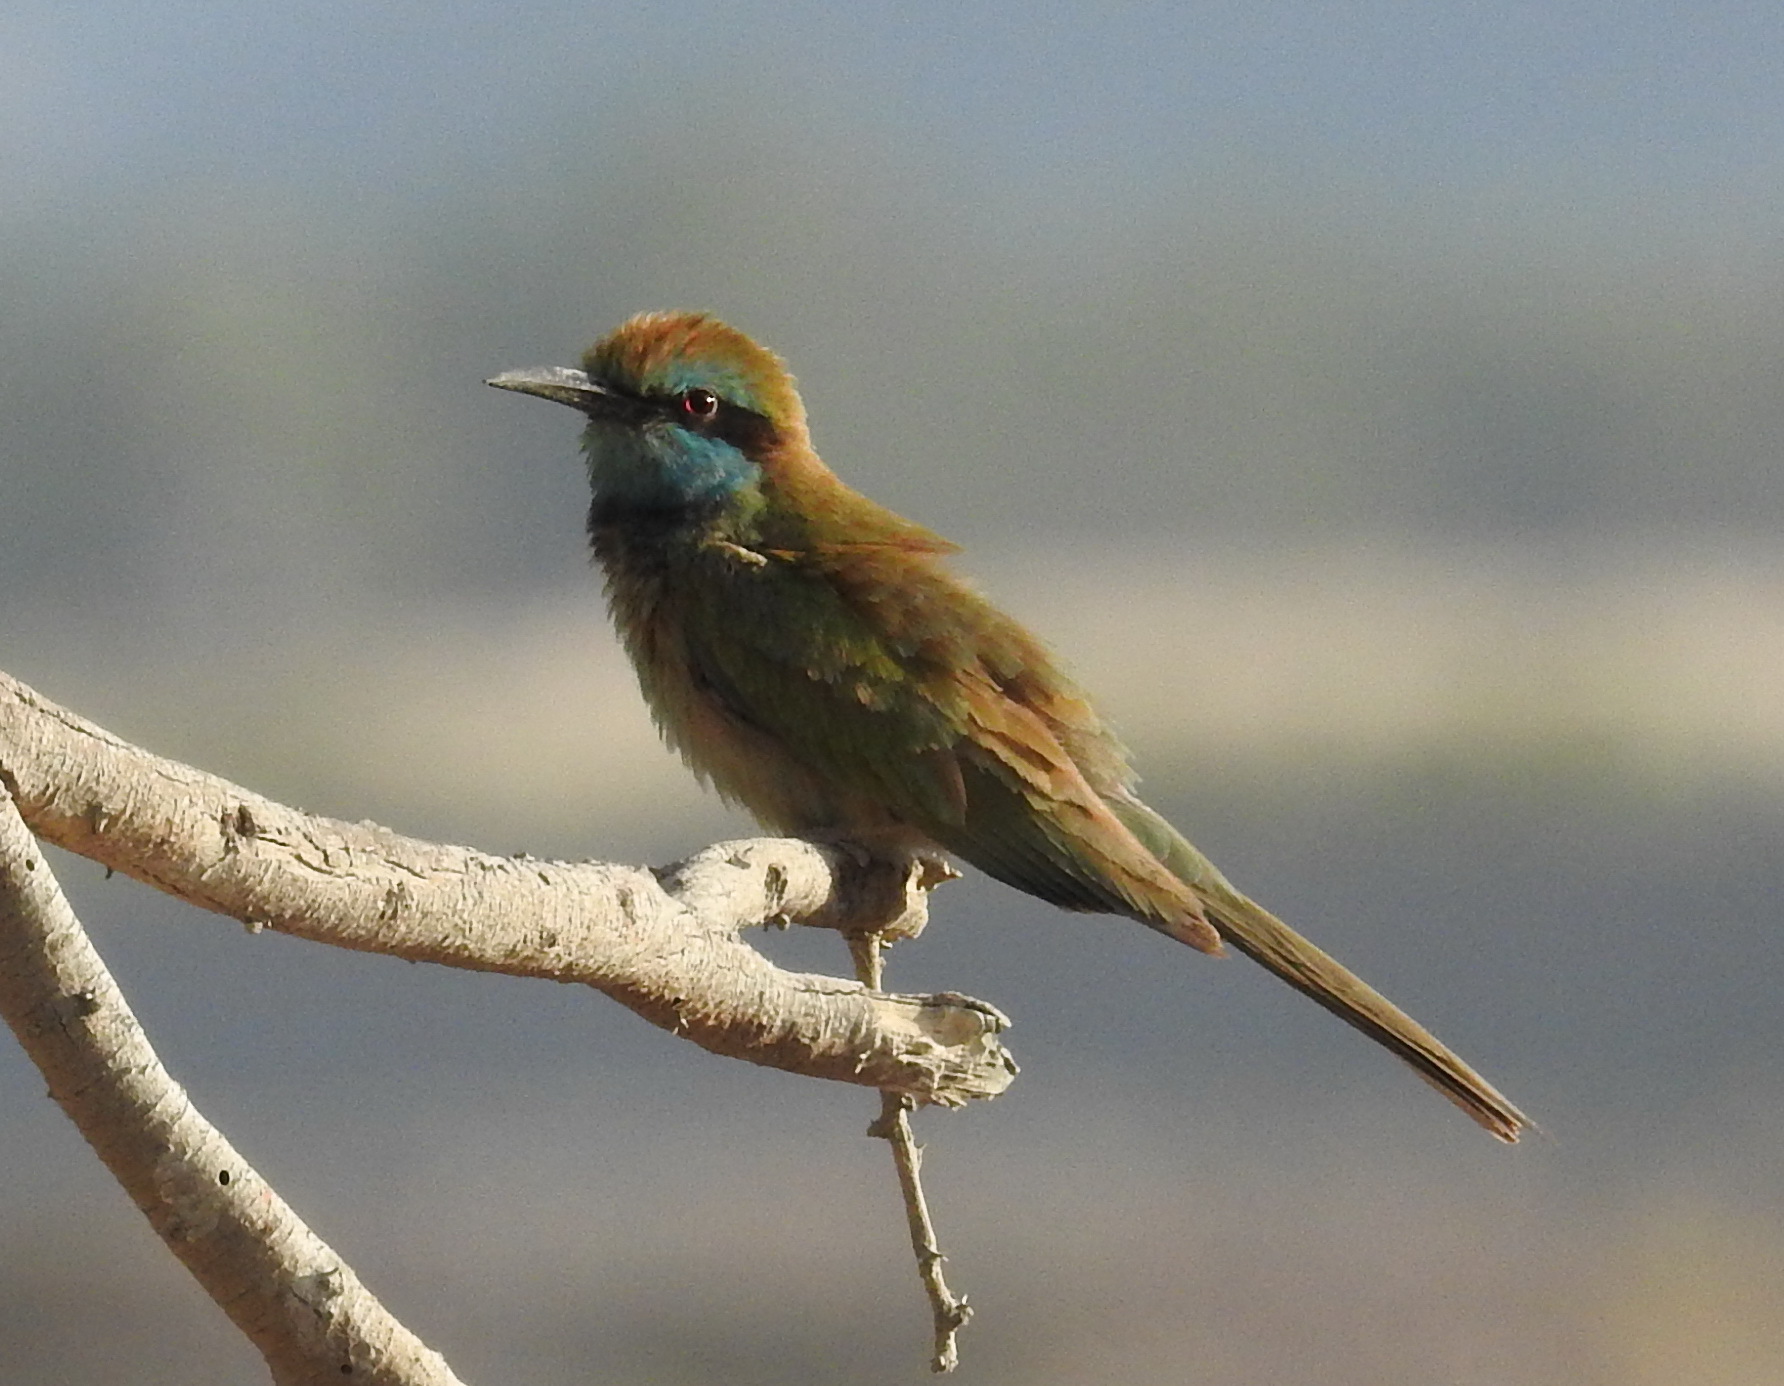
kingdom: Animalia
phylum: Chordata
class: Aves
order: Coraciiformes
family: Meropidae
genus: Merops
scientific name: Merops cyanophrys
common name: Arabian green bee-eater
